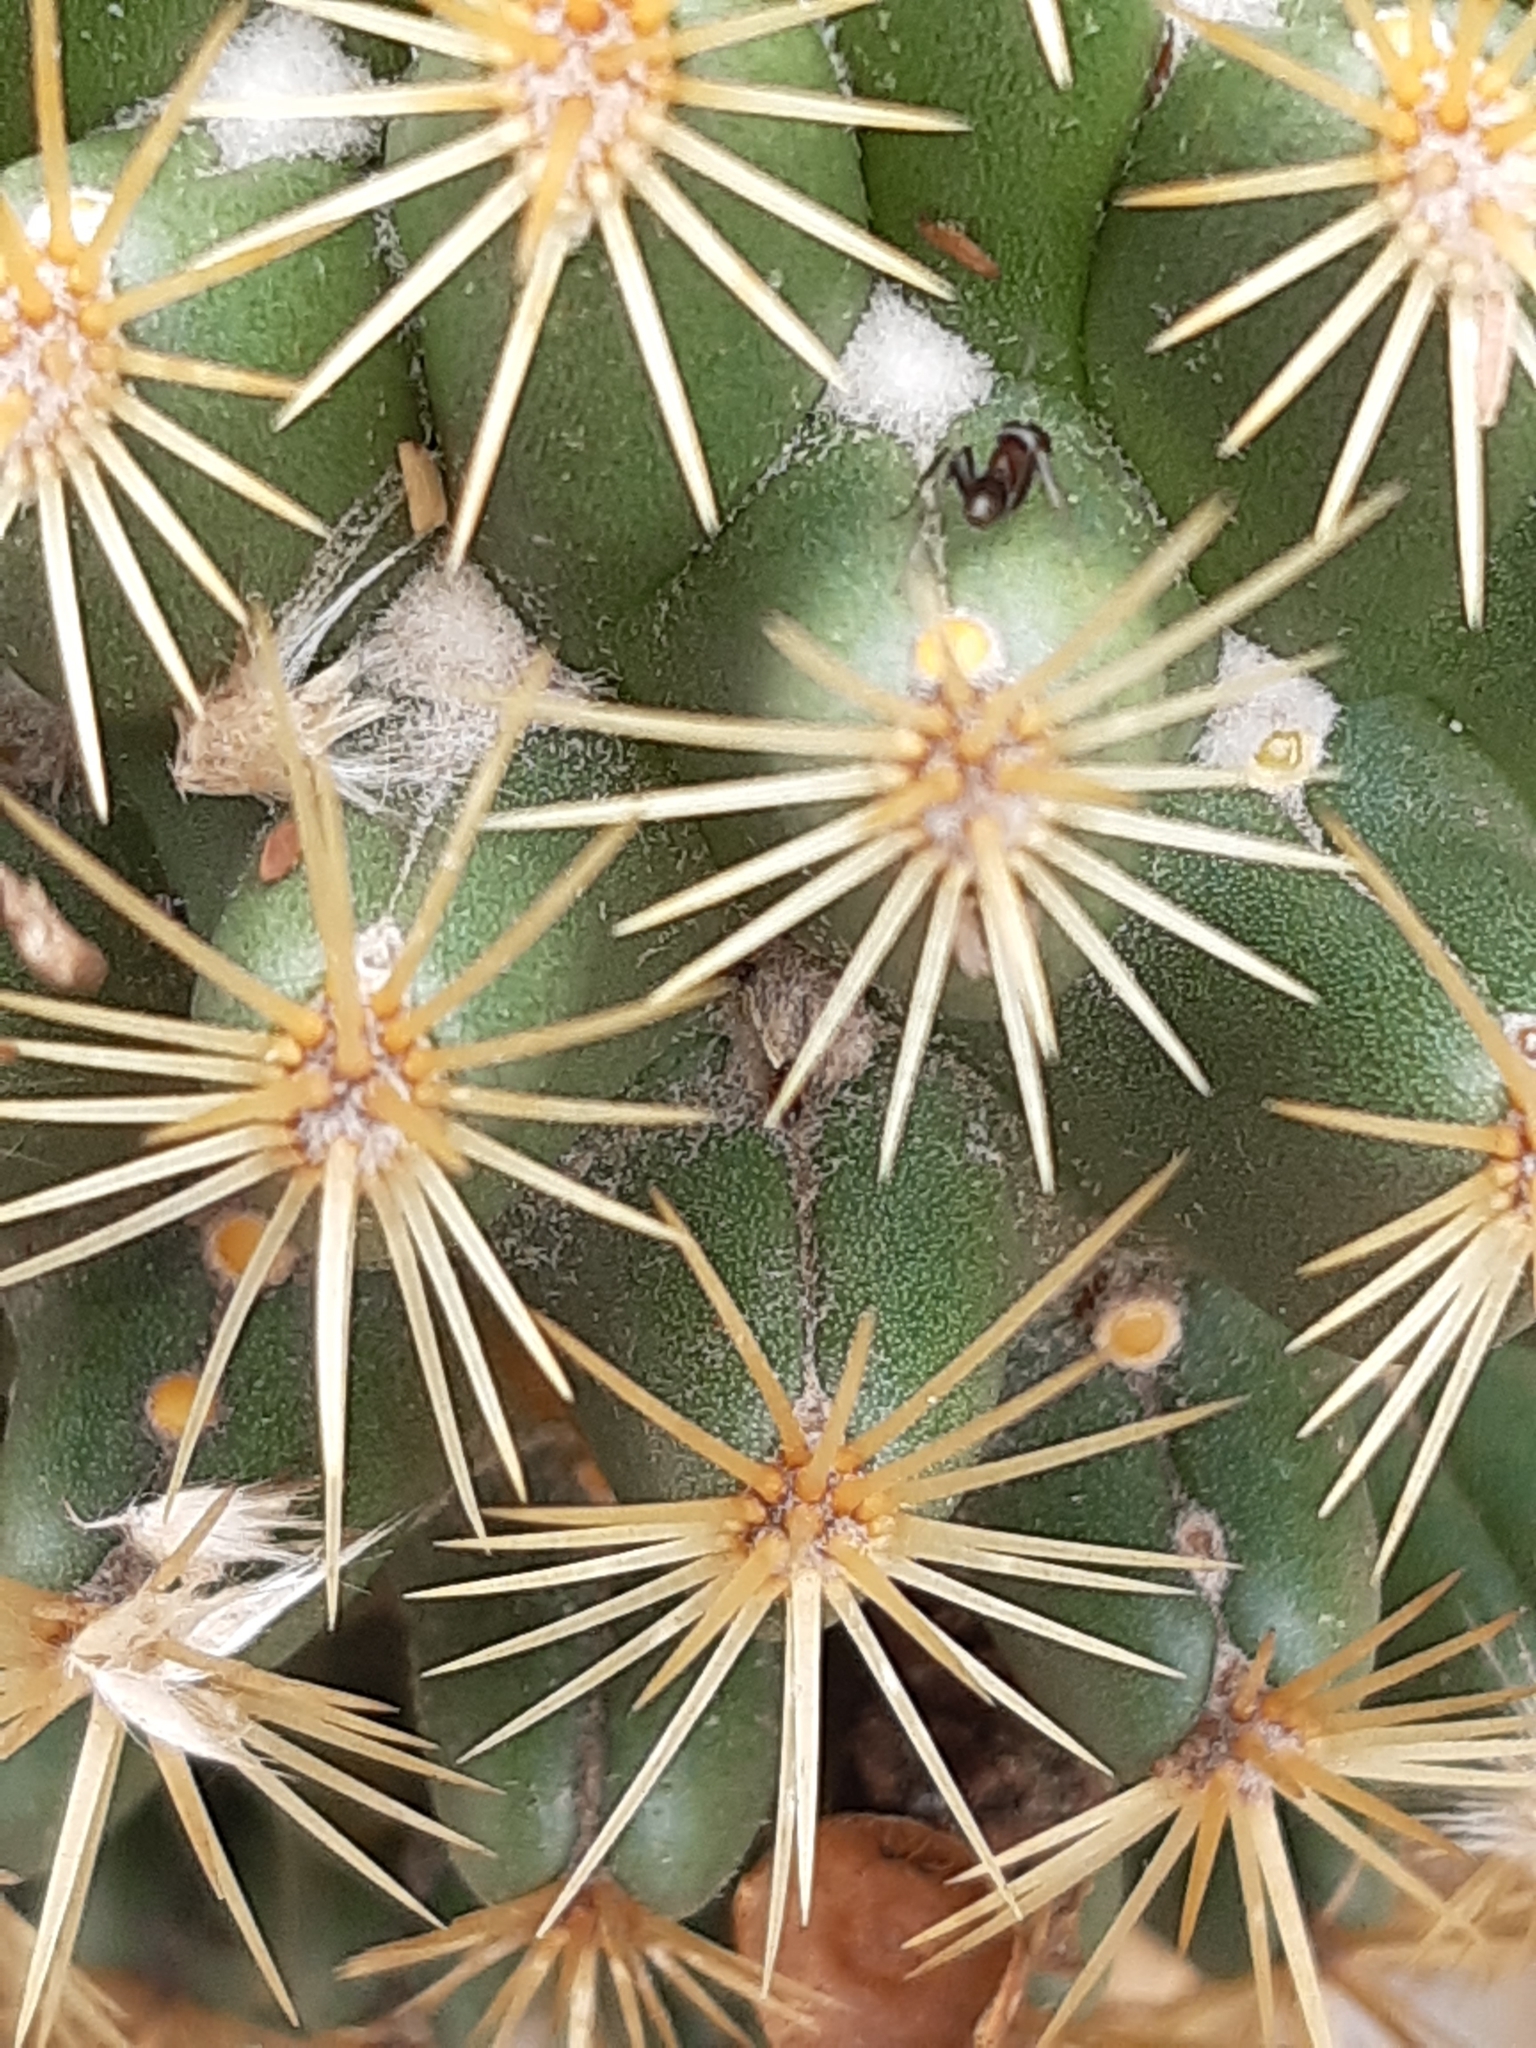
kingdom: Plantae
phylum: Tracheophyta
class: Magnoliopsida
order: Caryophyllales
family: Cactaceae
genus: Coryphantha
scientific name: Coryphantha erecta
